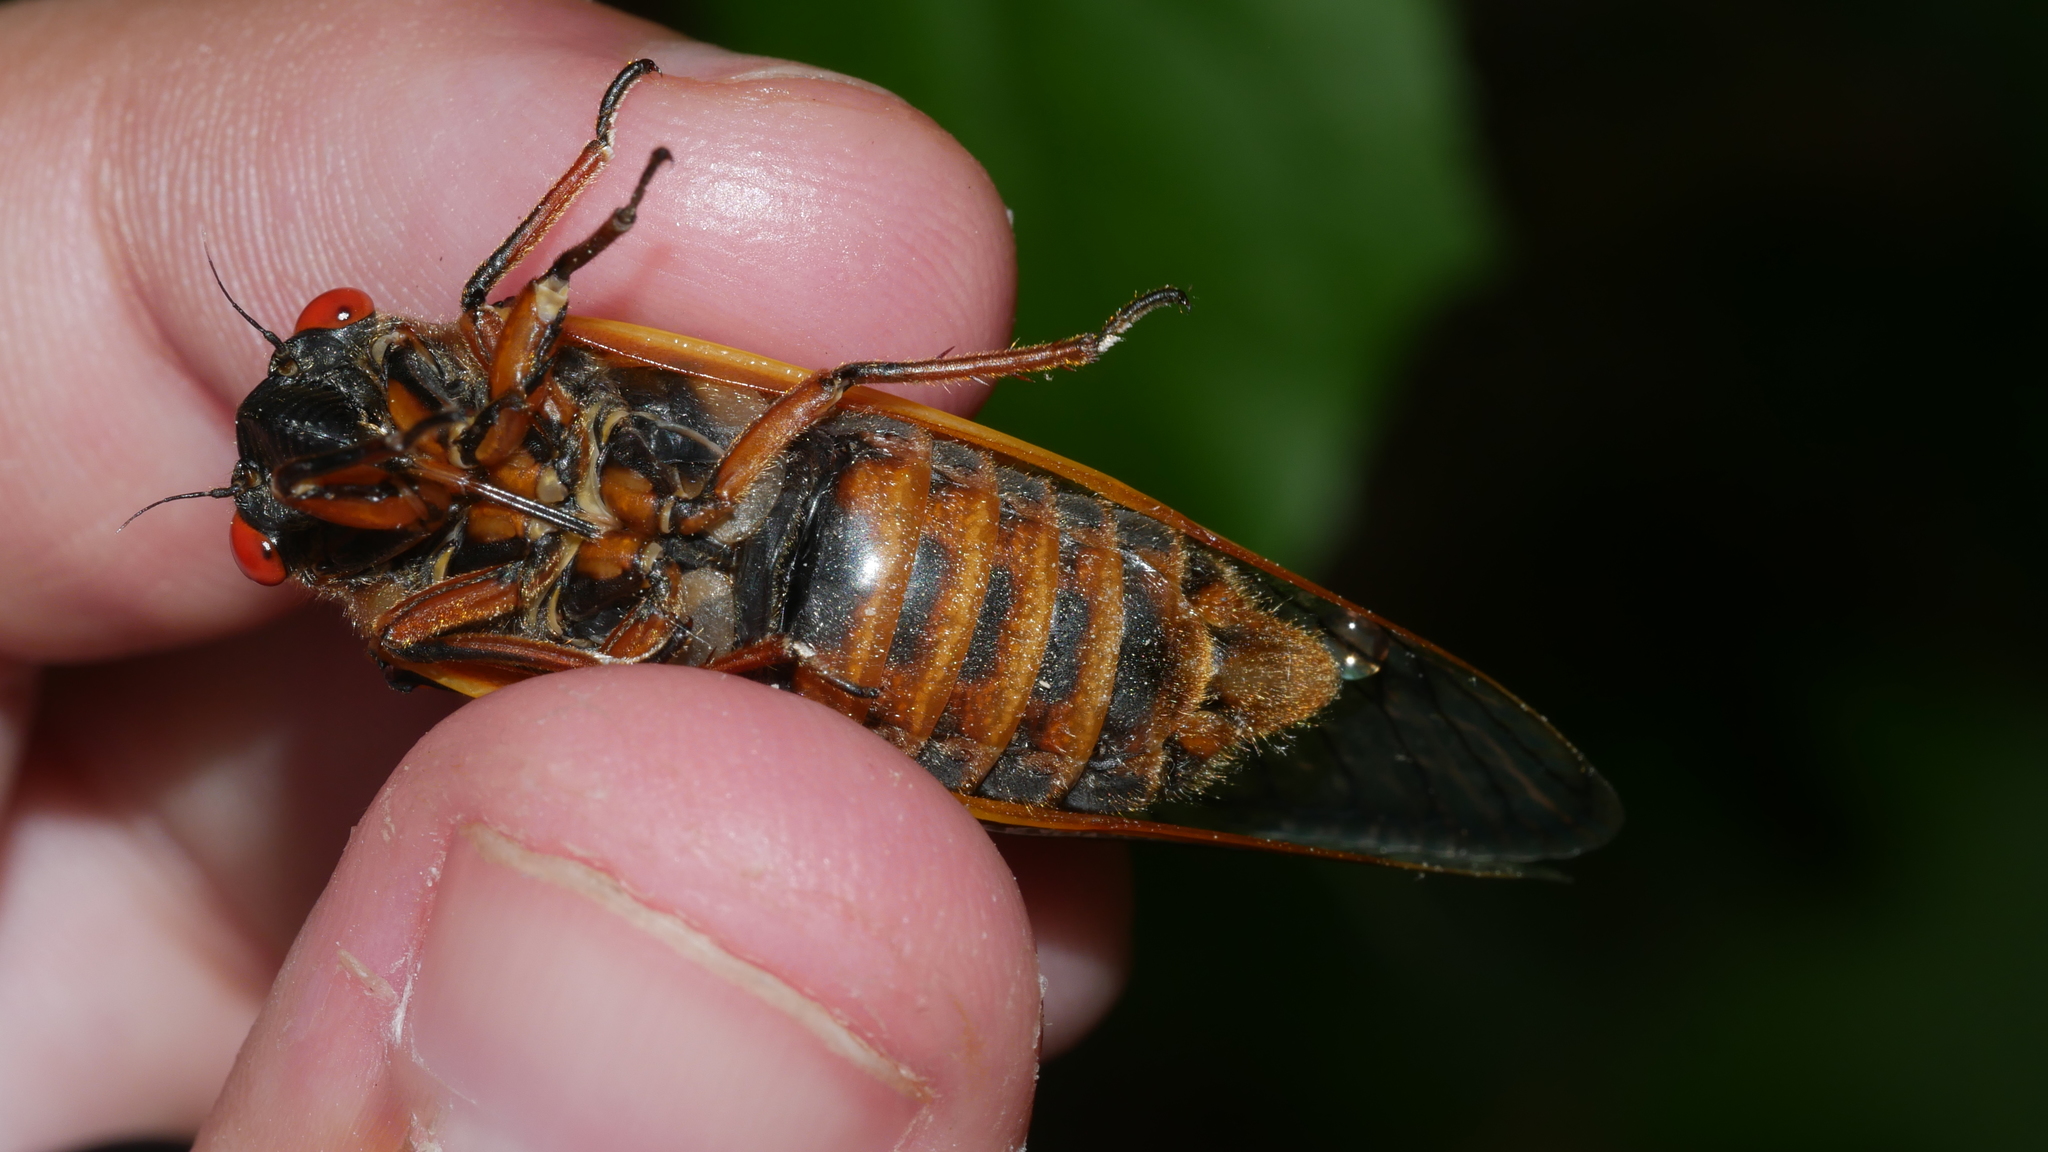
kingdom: Animalia
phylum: Arthropoda
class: Insecta
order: Hemiptera
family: Cicadidae
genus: Magicicada
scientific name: Magicicada septendecim
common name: Periodical cicada
